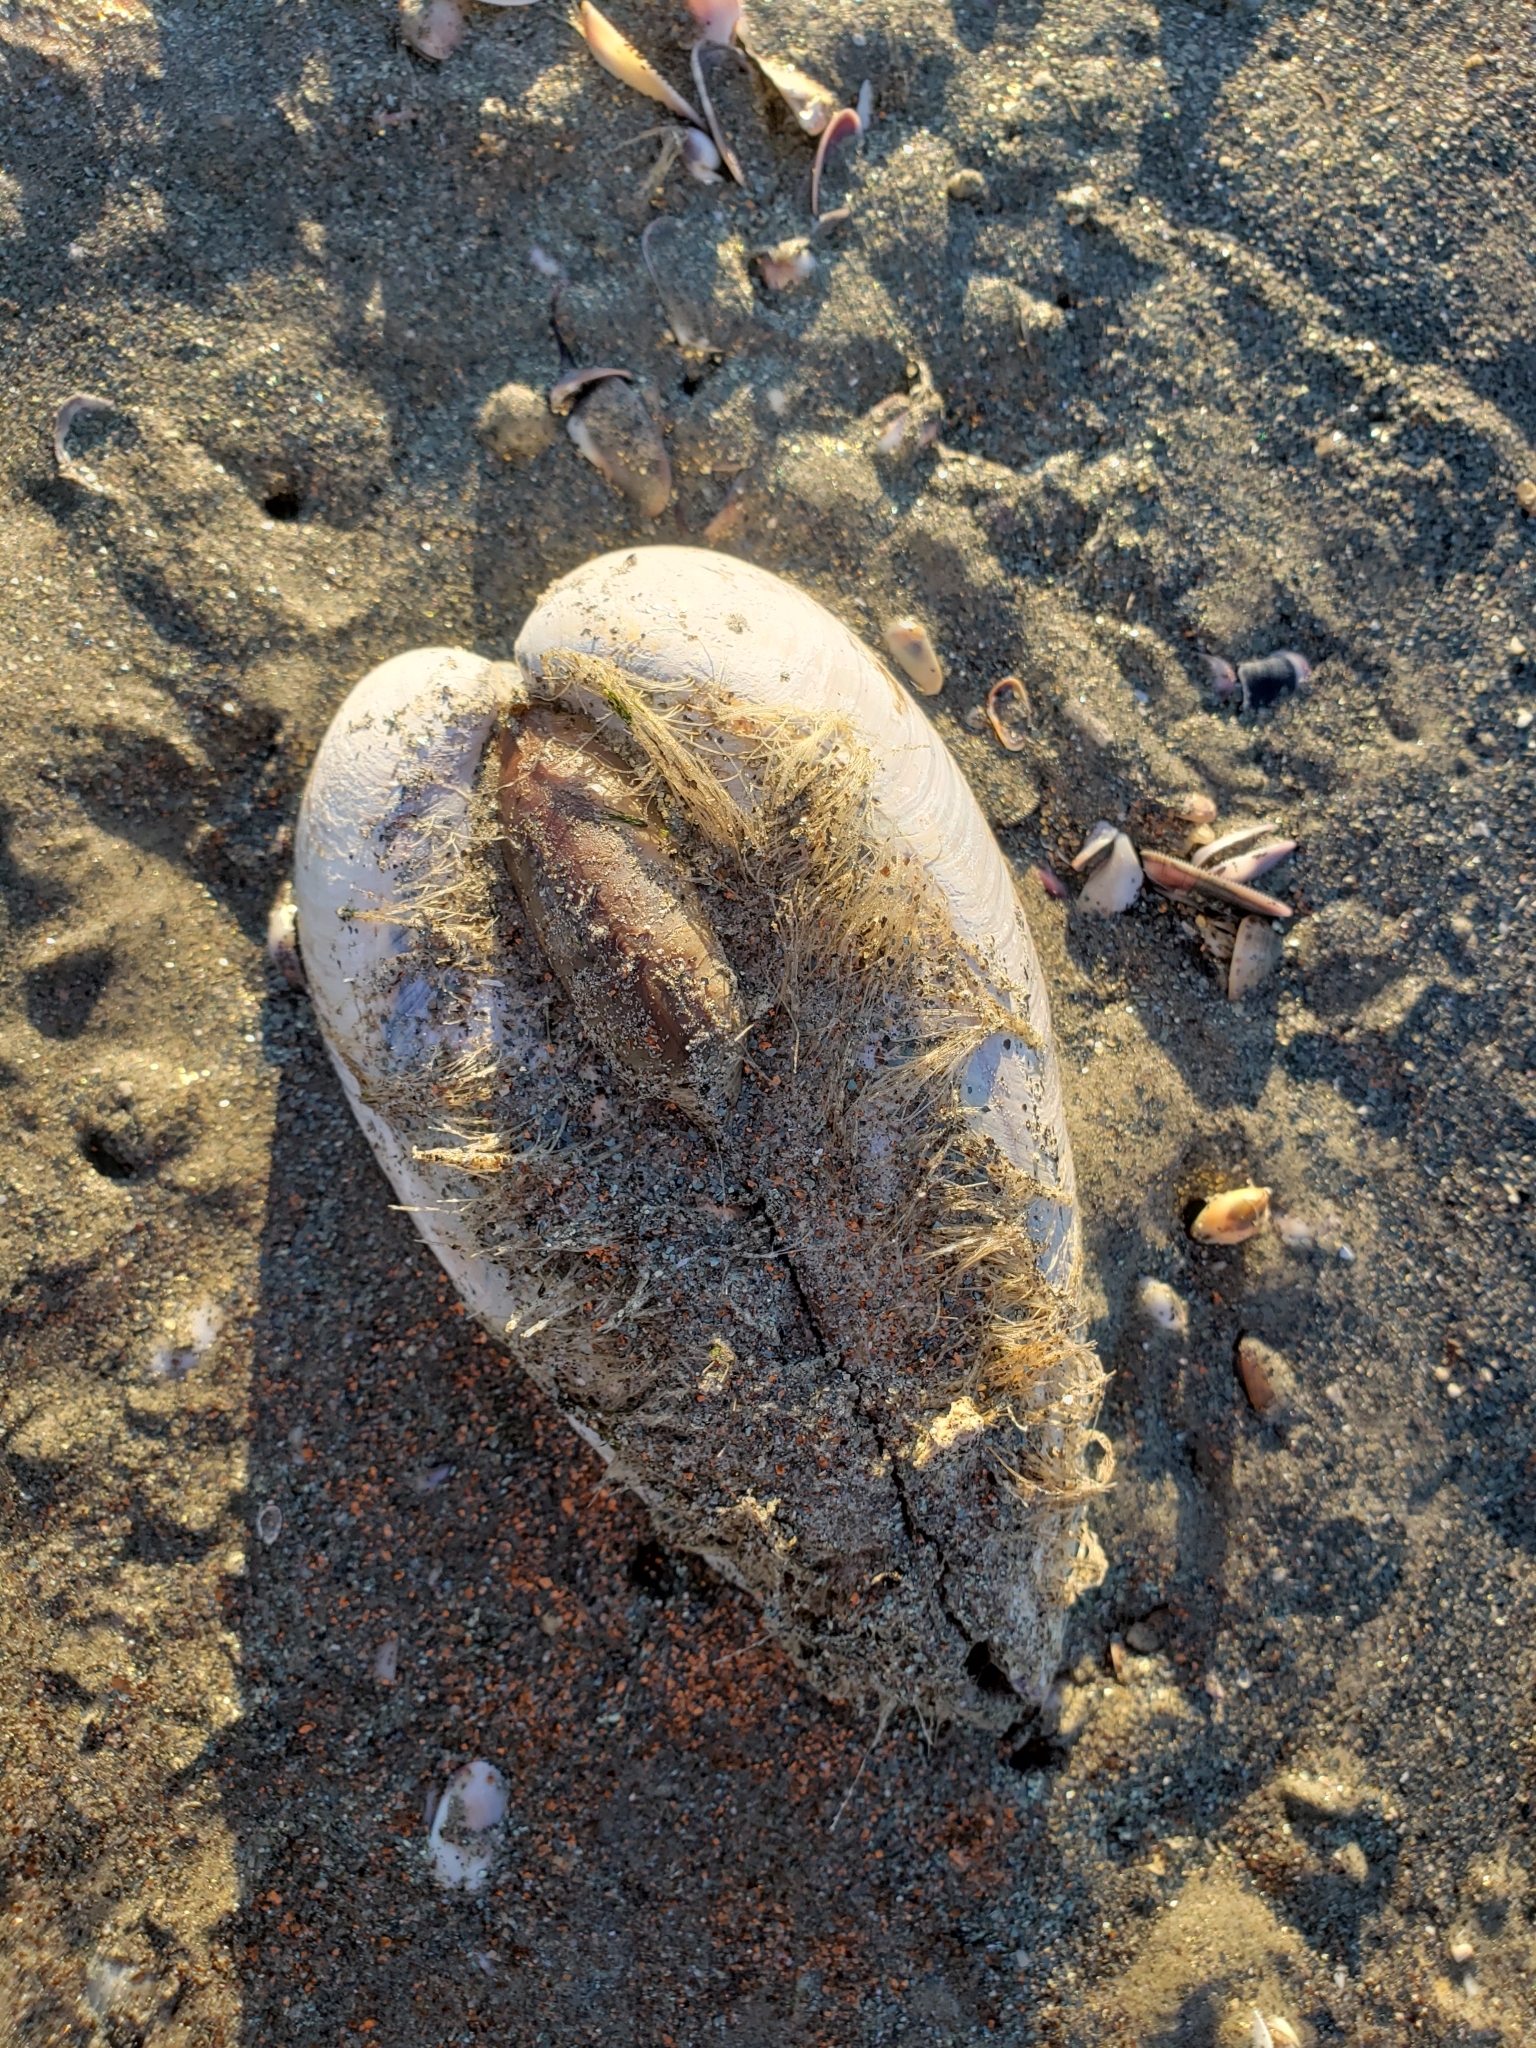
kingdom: Animalia
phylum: Mollusca
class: Bivalvia
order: Venerida
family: Veneridae
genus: Tivela
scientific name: Tivela stultorum
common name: Pismo clam
